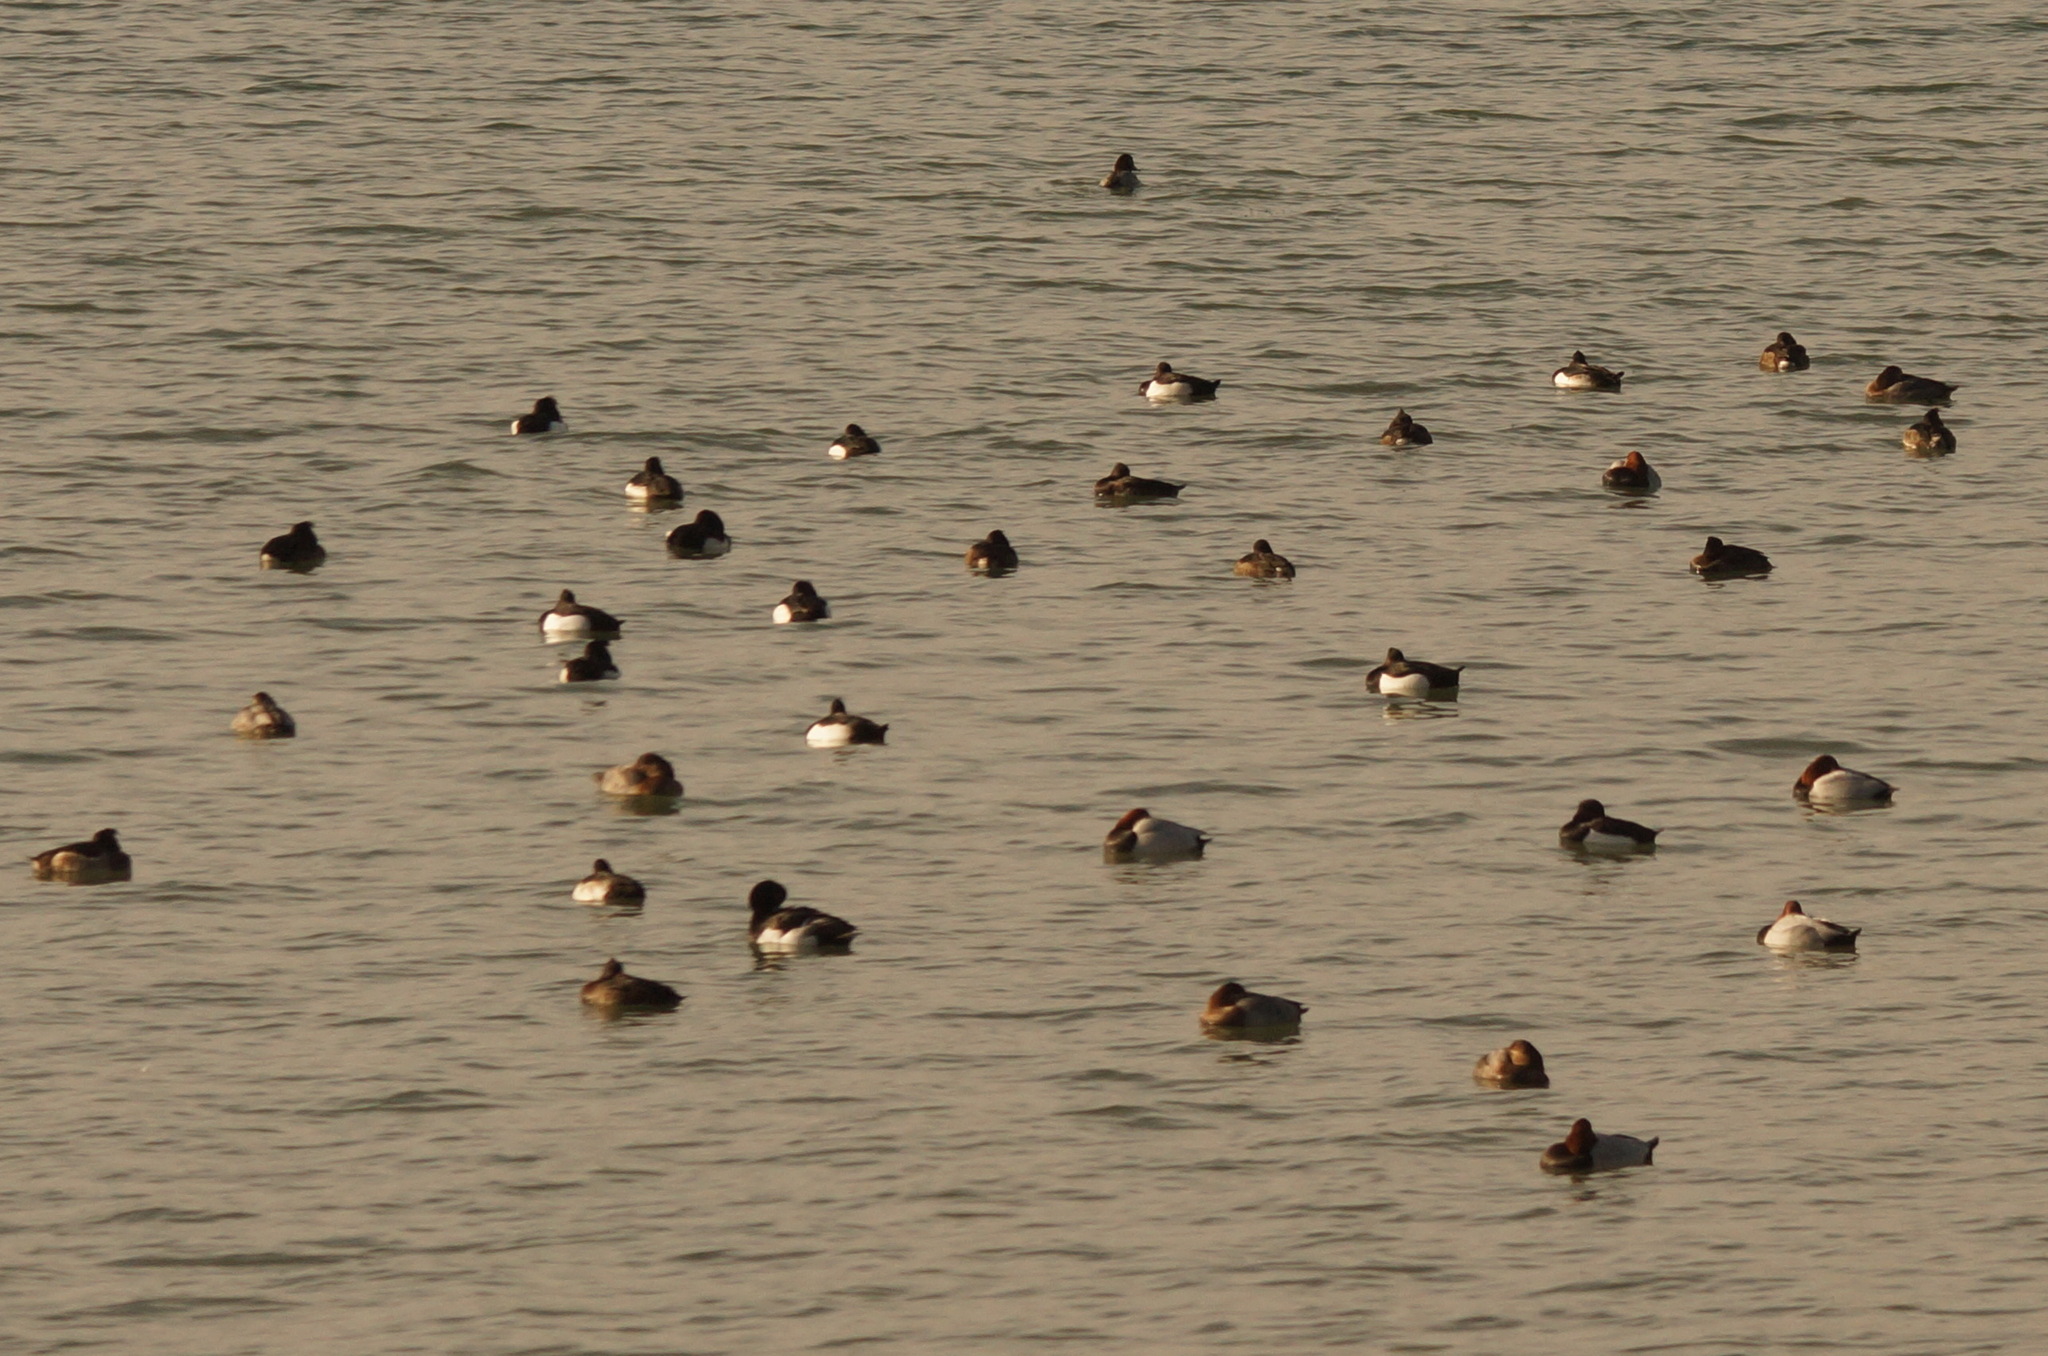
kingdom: Animalia
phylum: Chordata
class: Aves
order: Anseriformes
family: Anatidae
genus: Aythya
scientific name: Aythya fuligula
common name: Tufted duck
